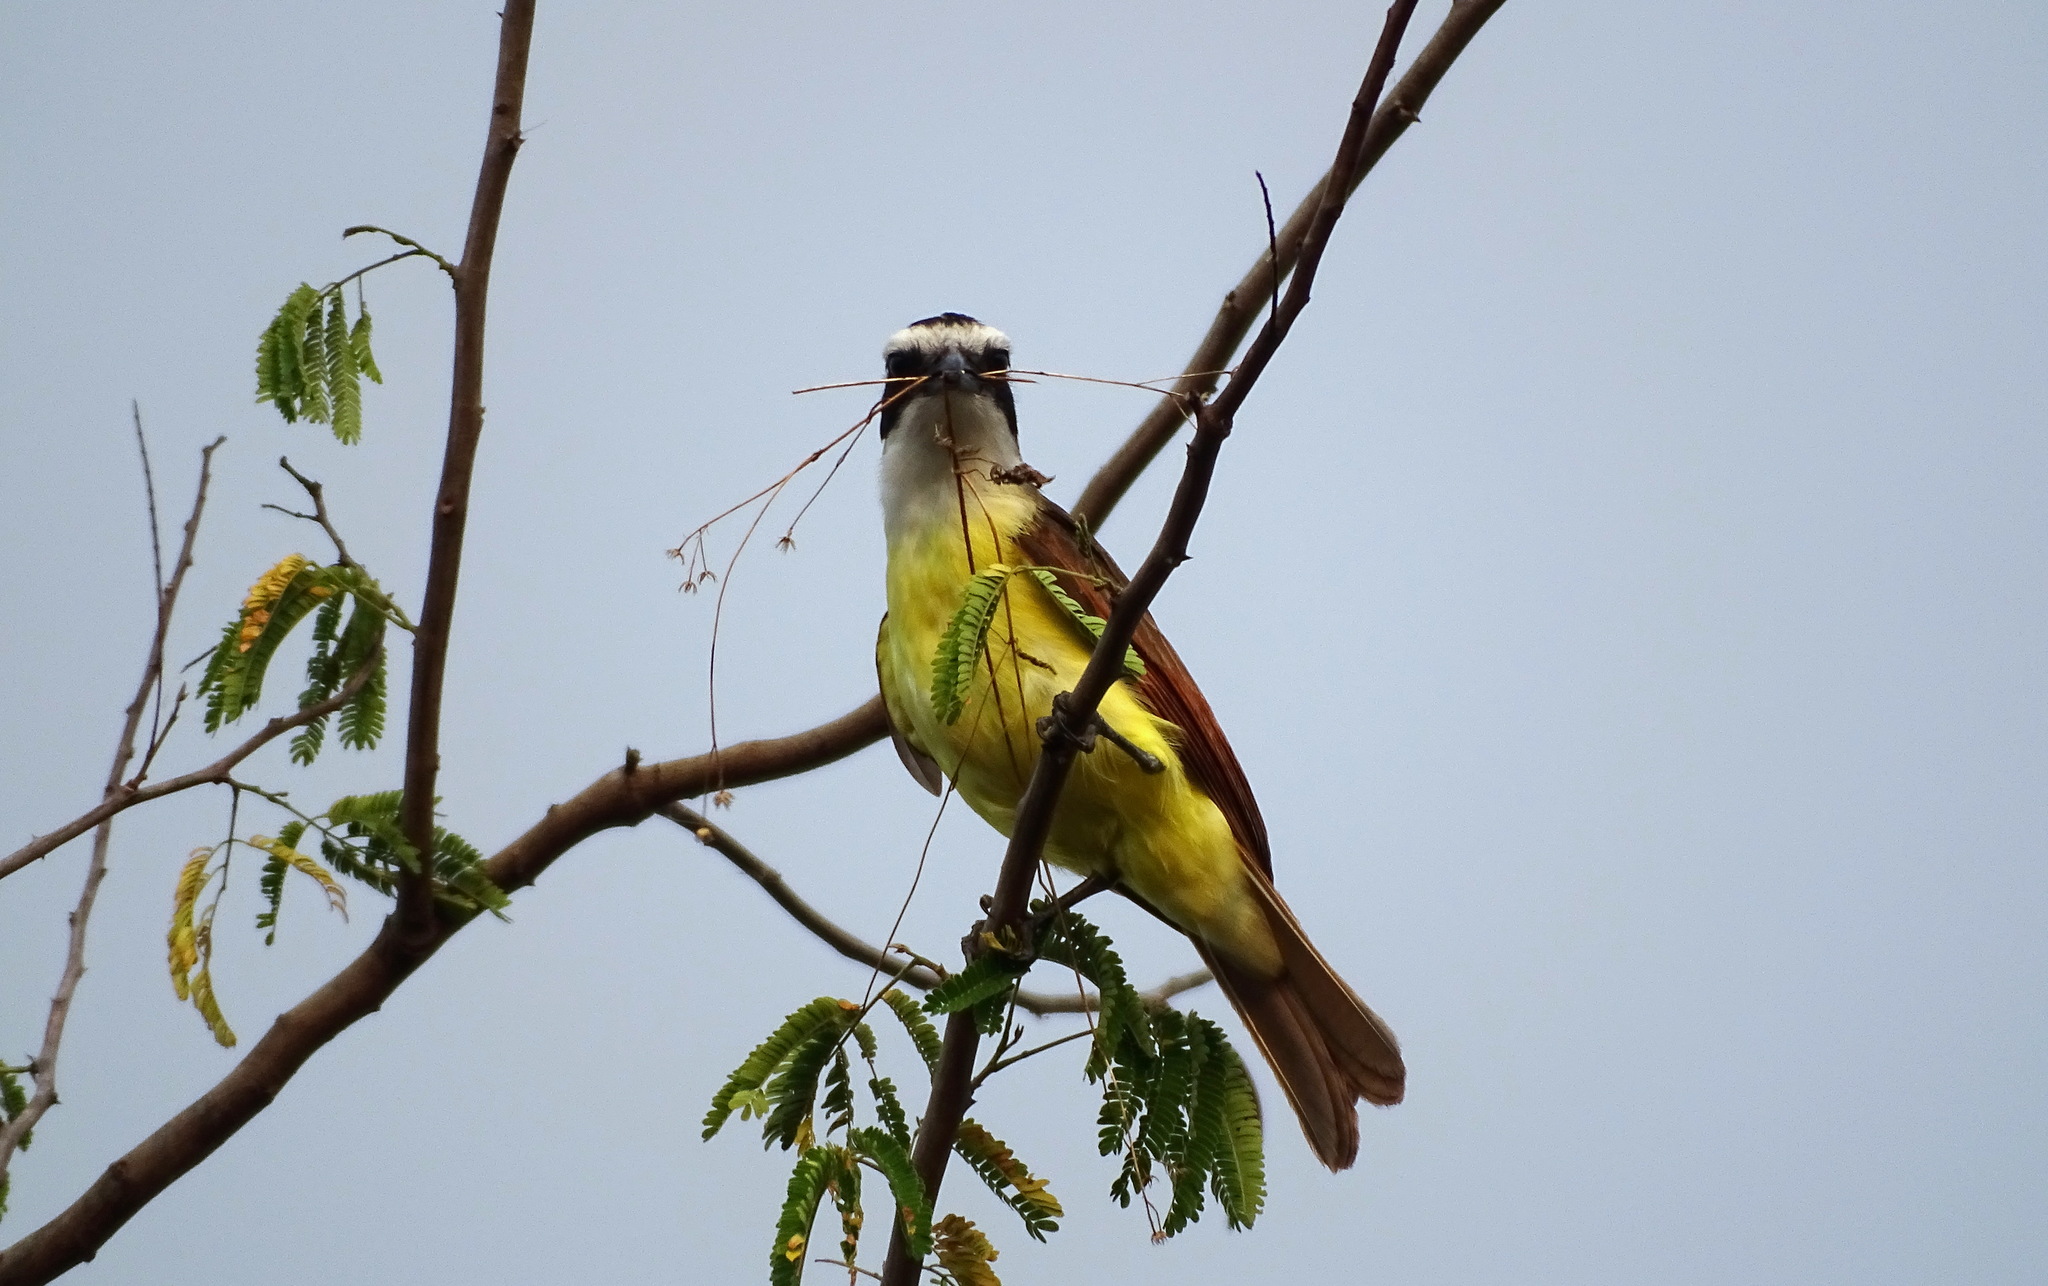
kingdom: Animalia
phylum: Chordata
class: Aves
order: Passeriformes
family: Tyrannidae
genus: Pitangus
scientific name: Pitangus sulphuratus
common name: Great kiskadee
